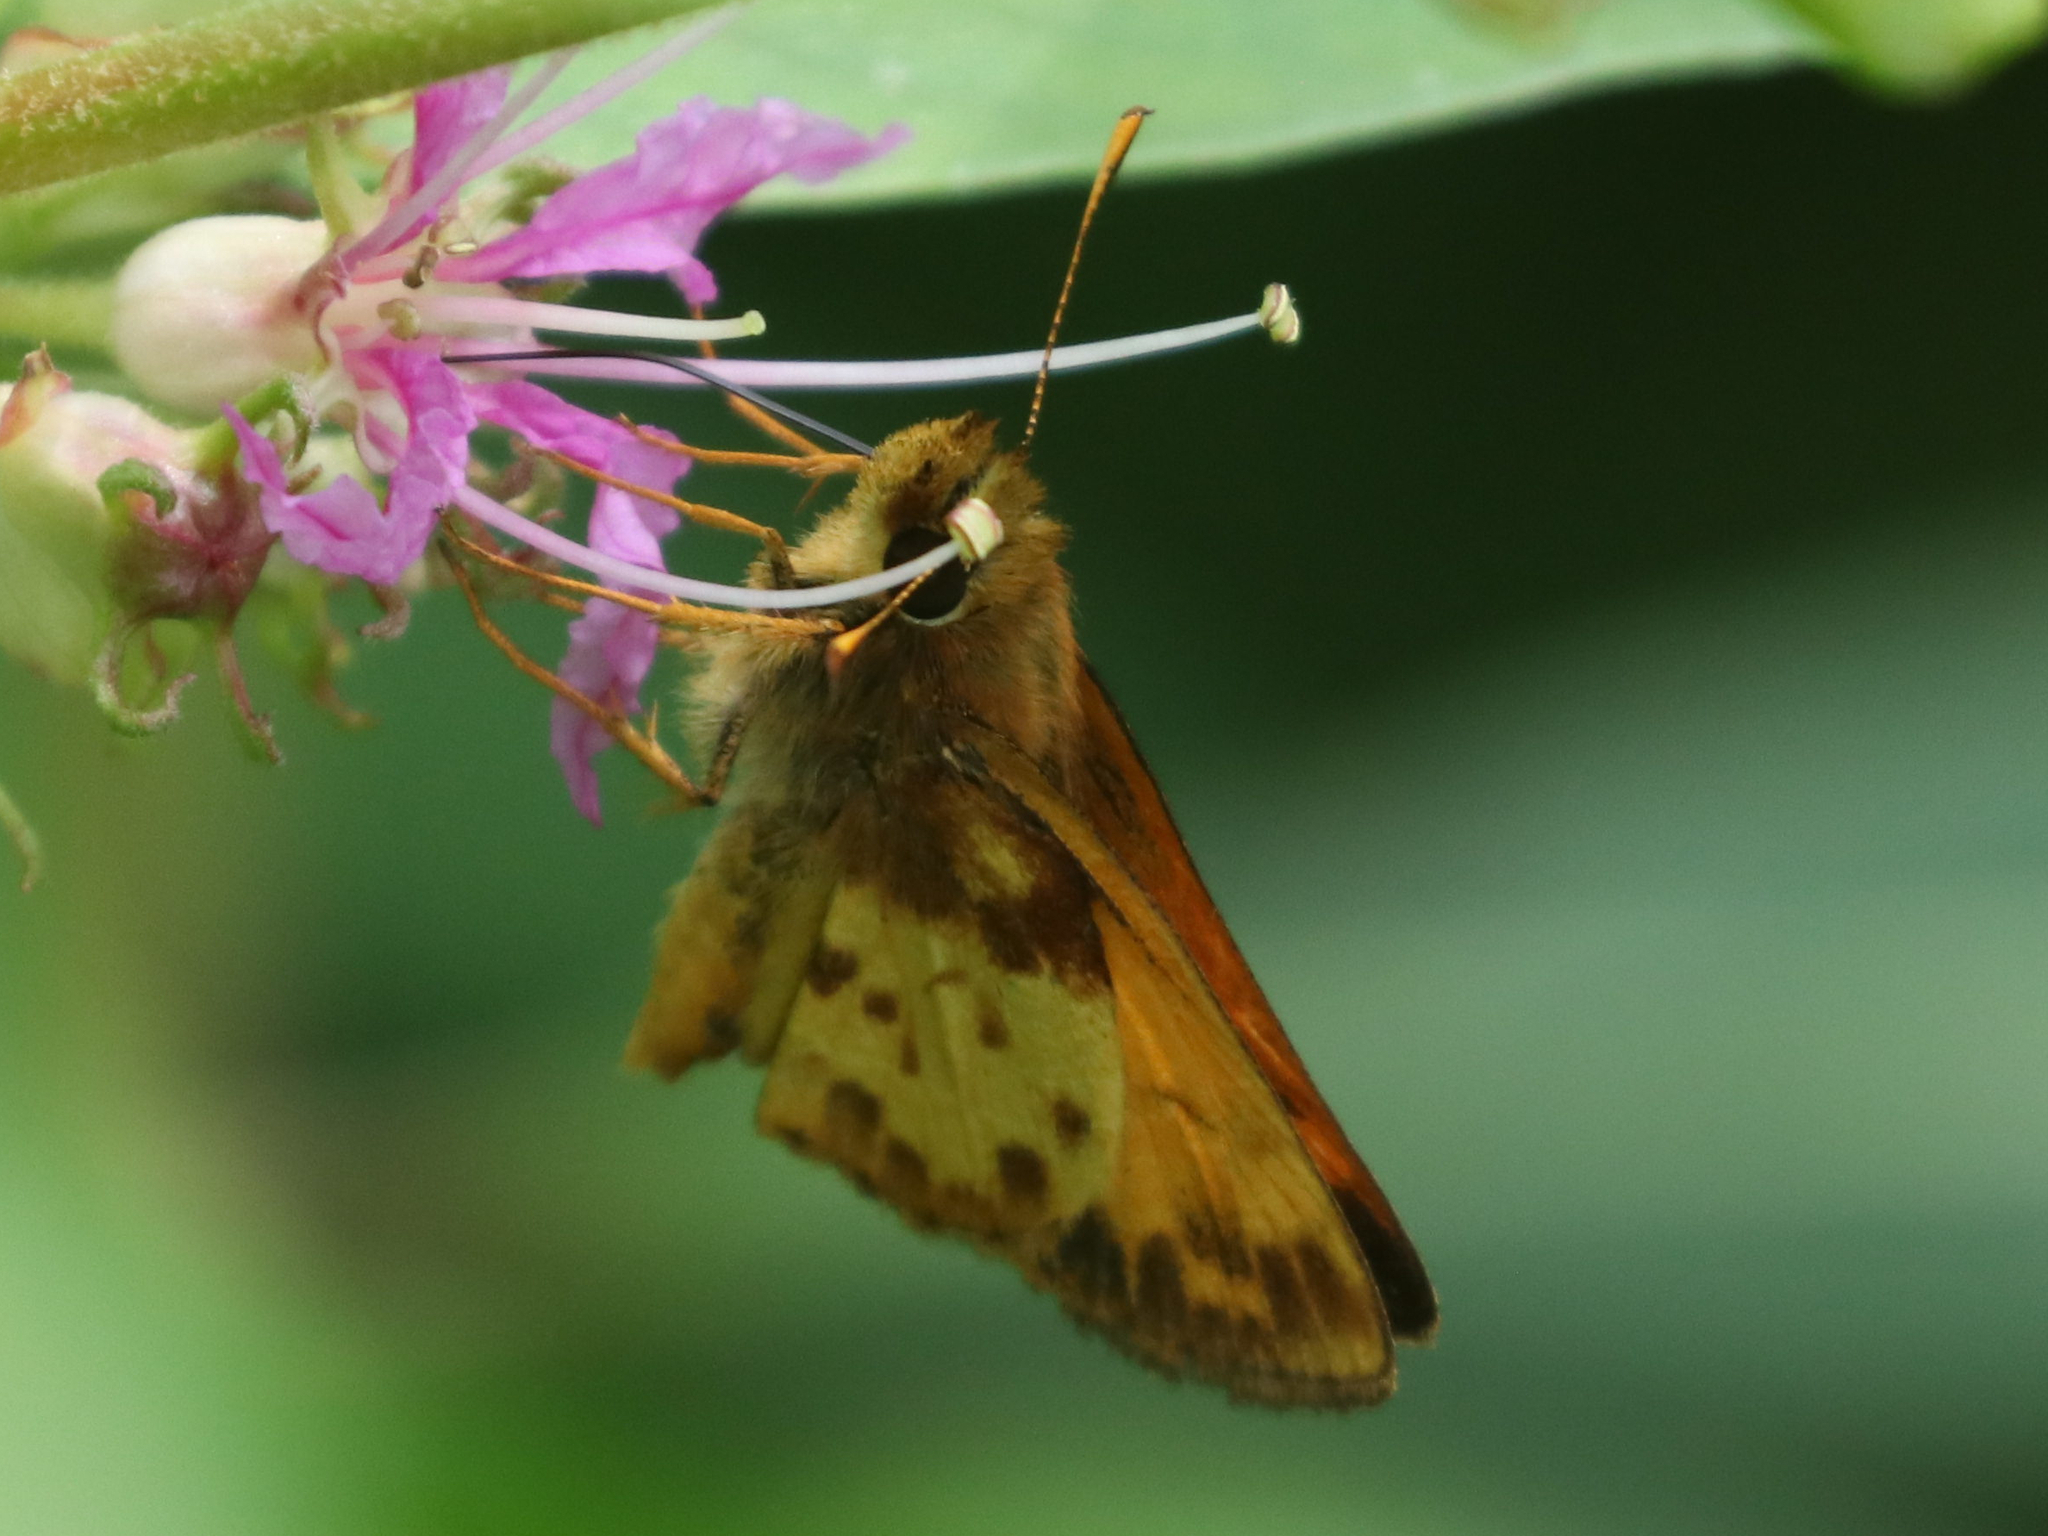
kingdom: Animalia
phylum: Arthropoda
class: Insecta
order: Lepidoptera
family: Hesperiidae
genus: Lon
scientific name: Lon zabulon
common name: Zabulon skipper
